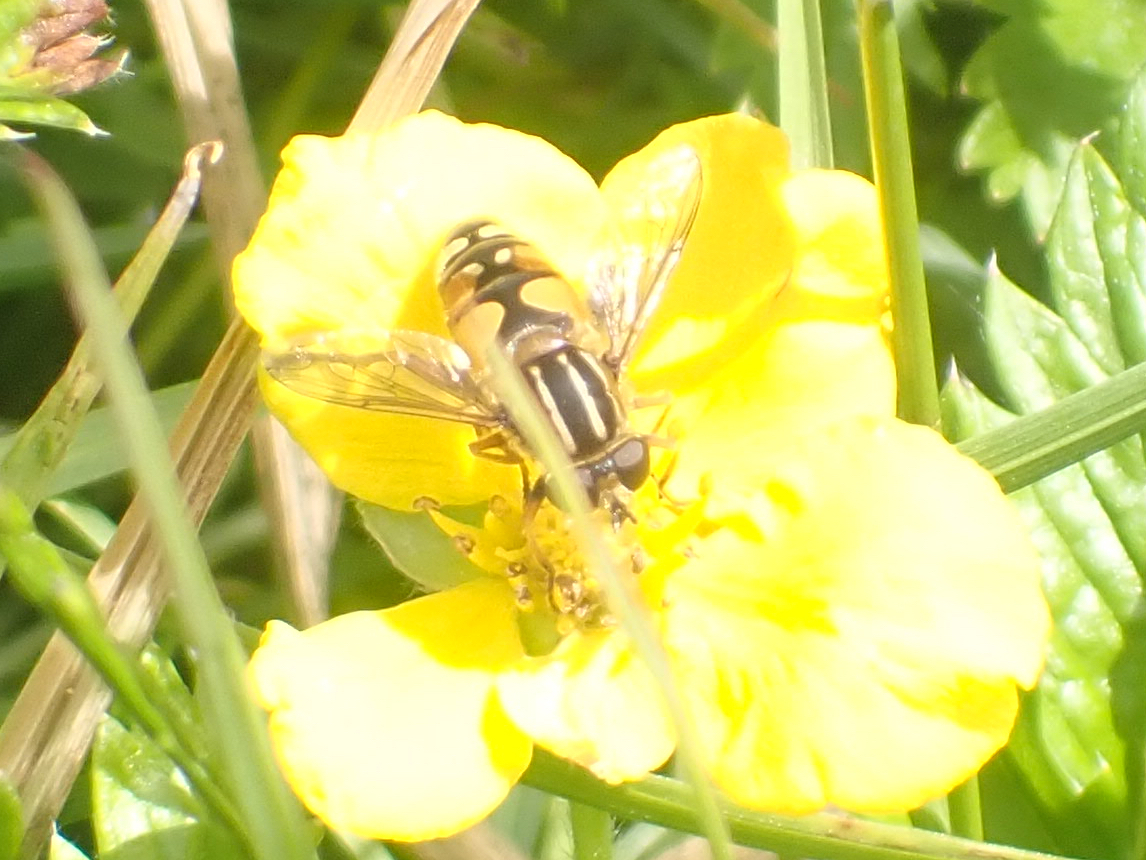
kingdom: Animalia
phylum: Arthropoda
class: Insecta
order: Diptera
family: Syrphidae
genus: Helophilus
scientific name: Helophilus intentus
